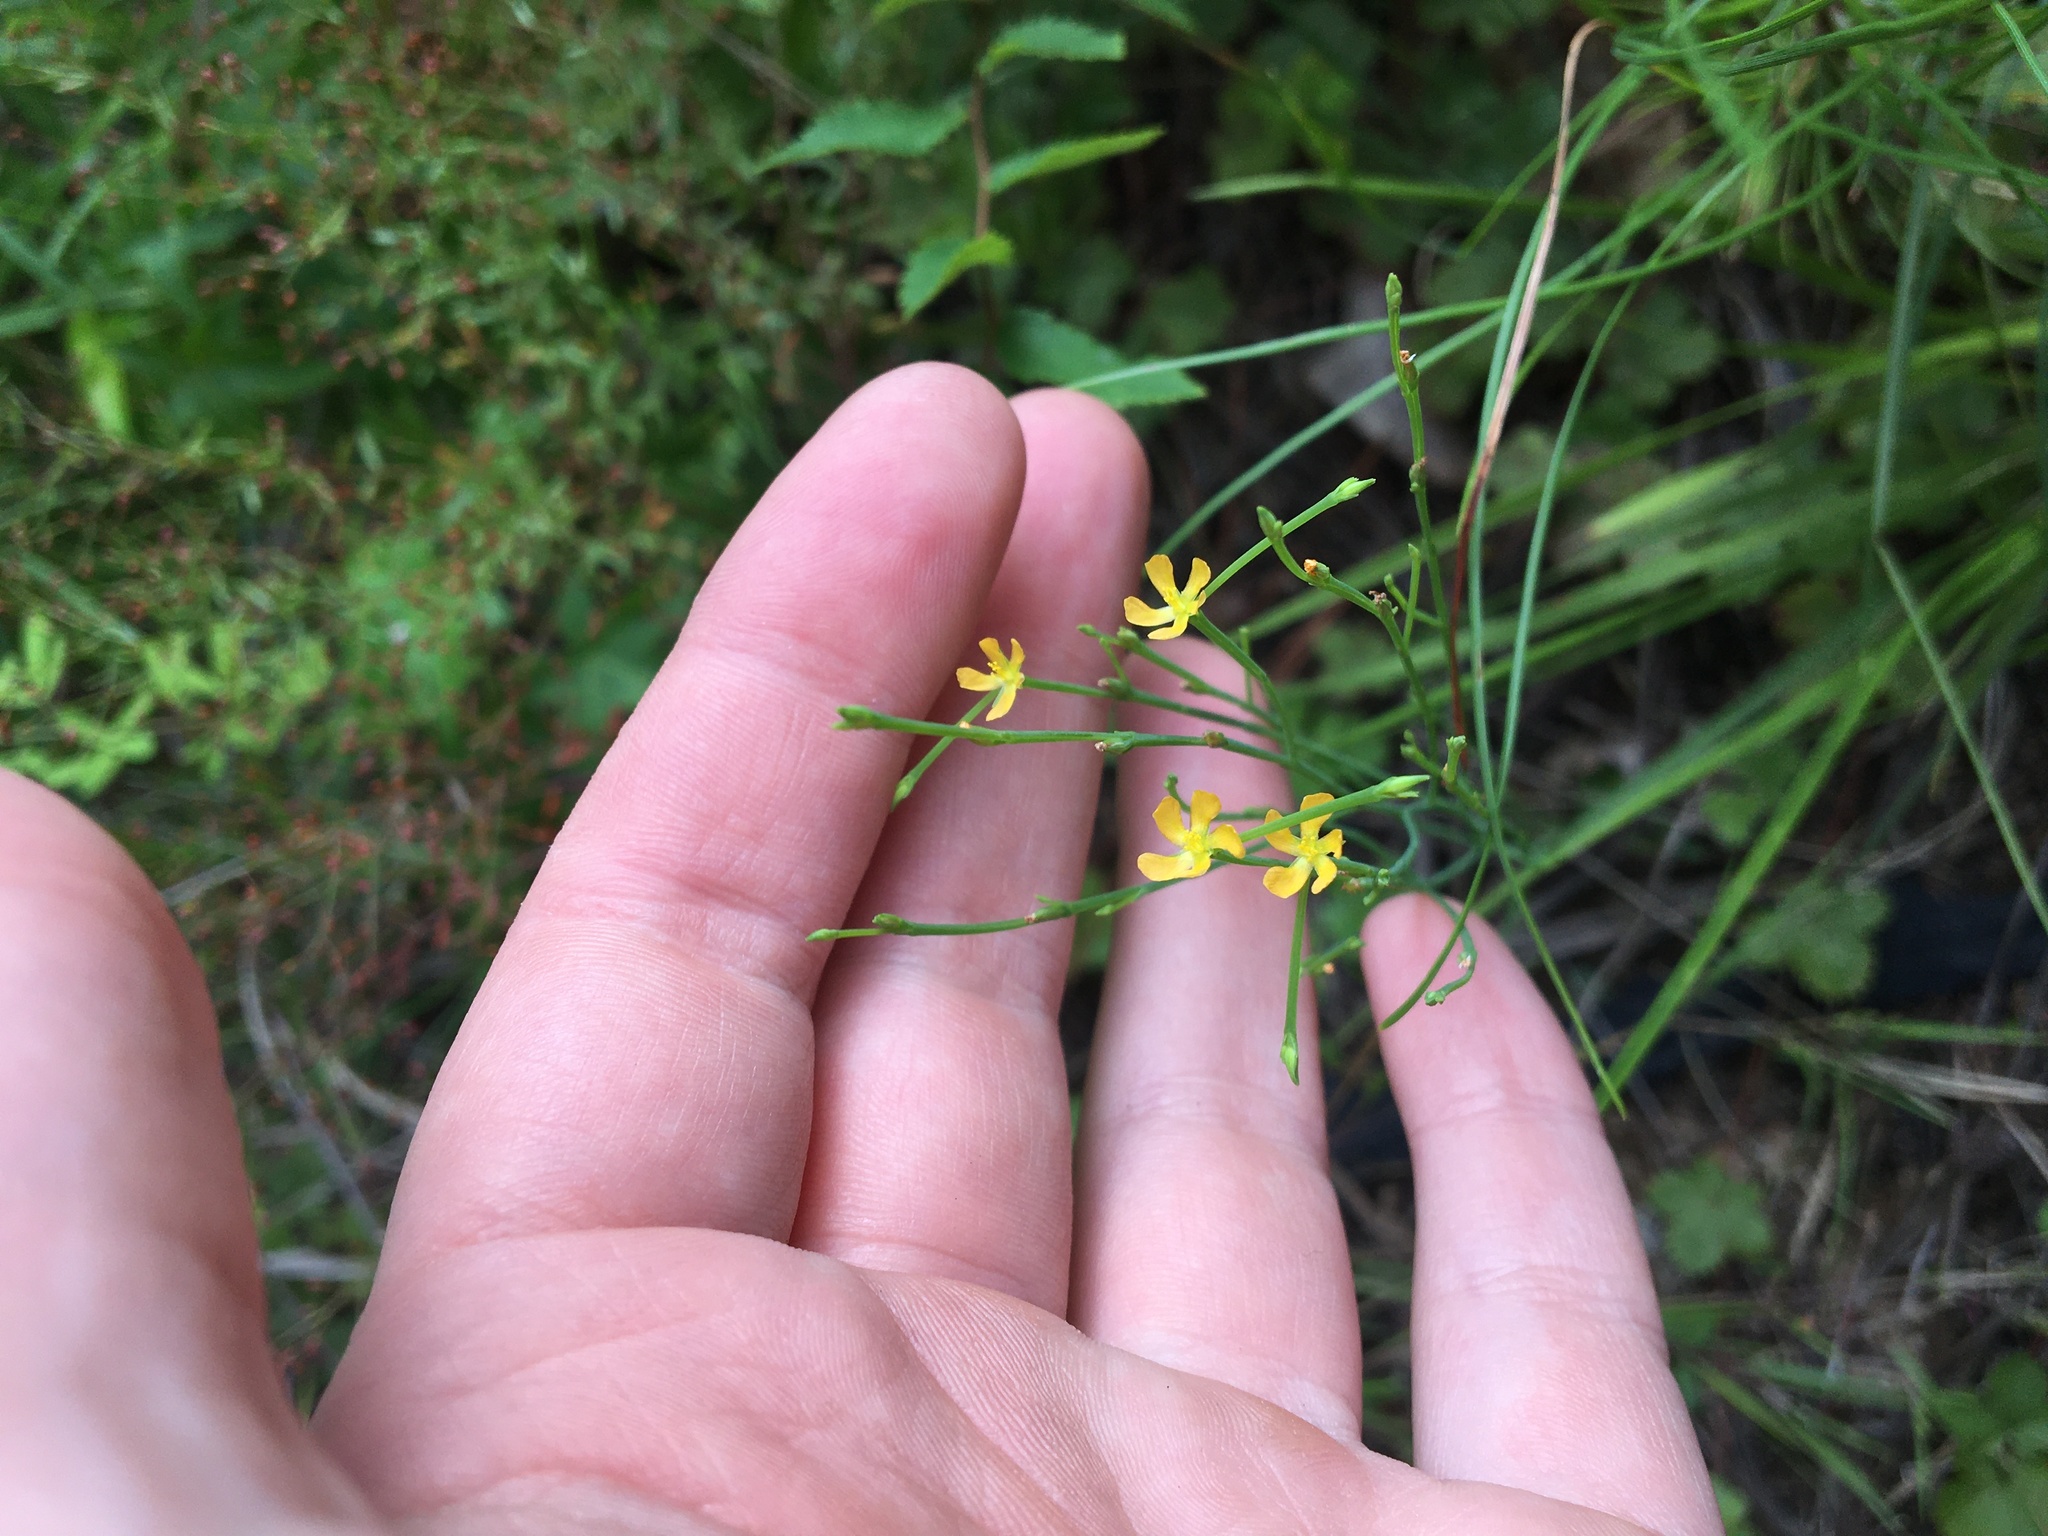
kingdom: Plantae
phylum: Tracheophyta
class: Magnoliopsida
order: Malpighiales
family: Hypericaceae
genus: Hypericum
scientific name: Hypericum gentianoides
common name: Gentian-leaved st. john's-wort
